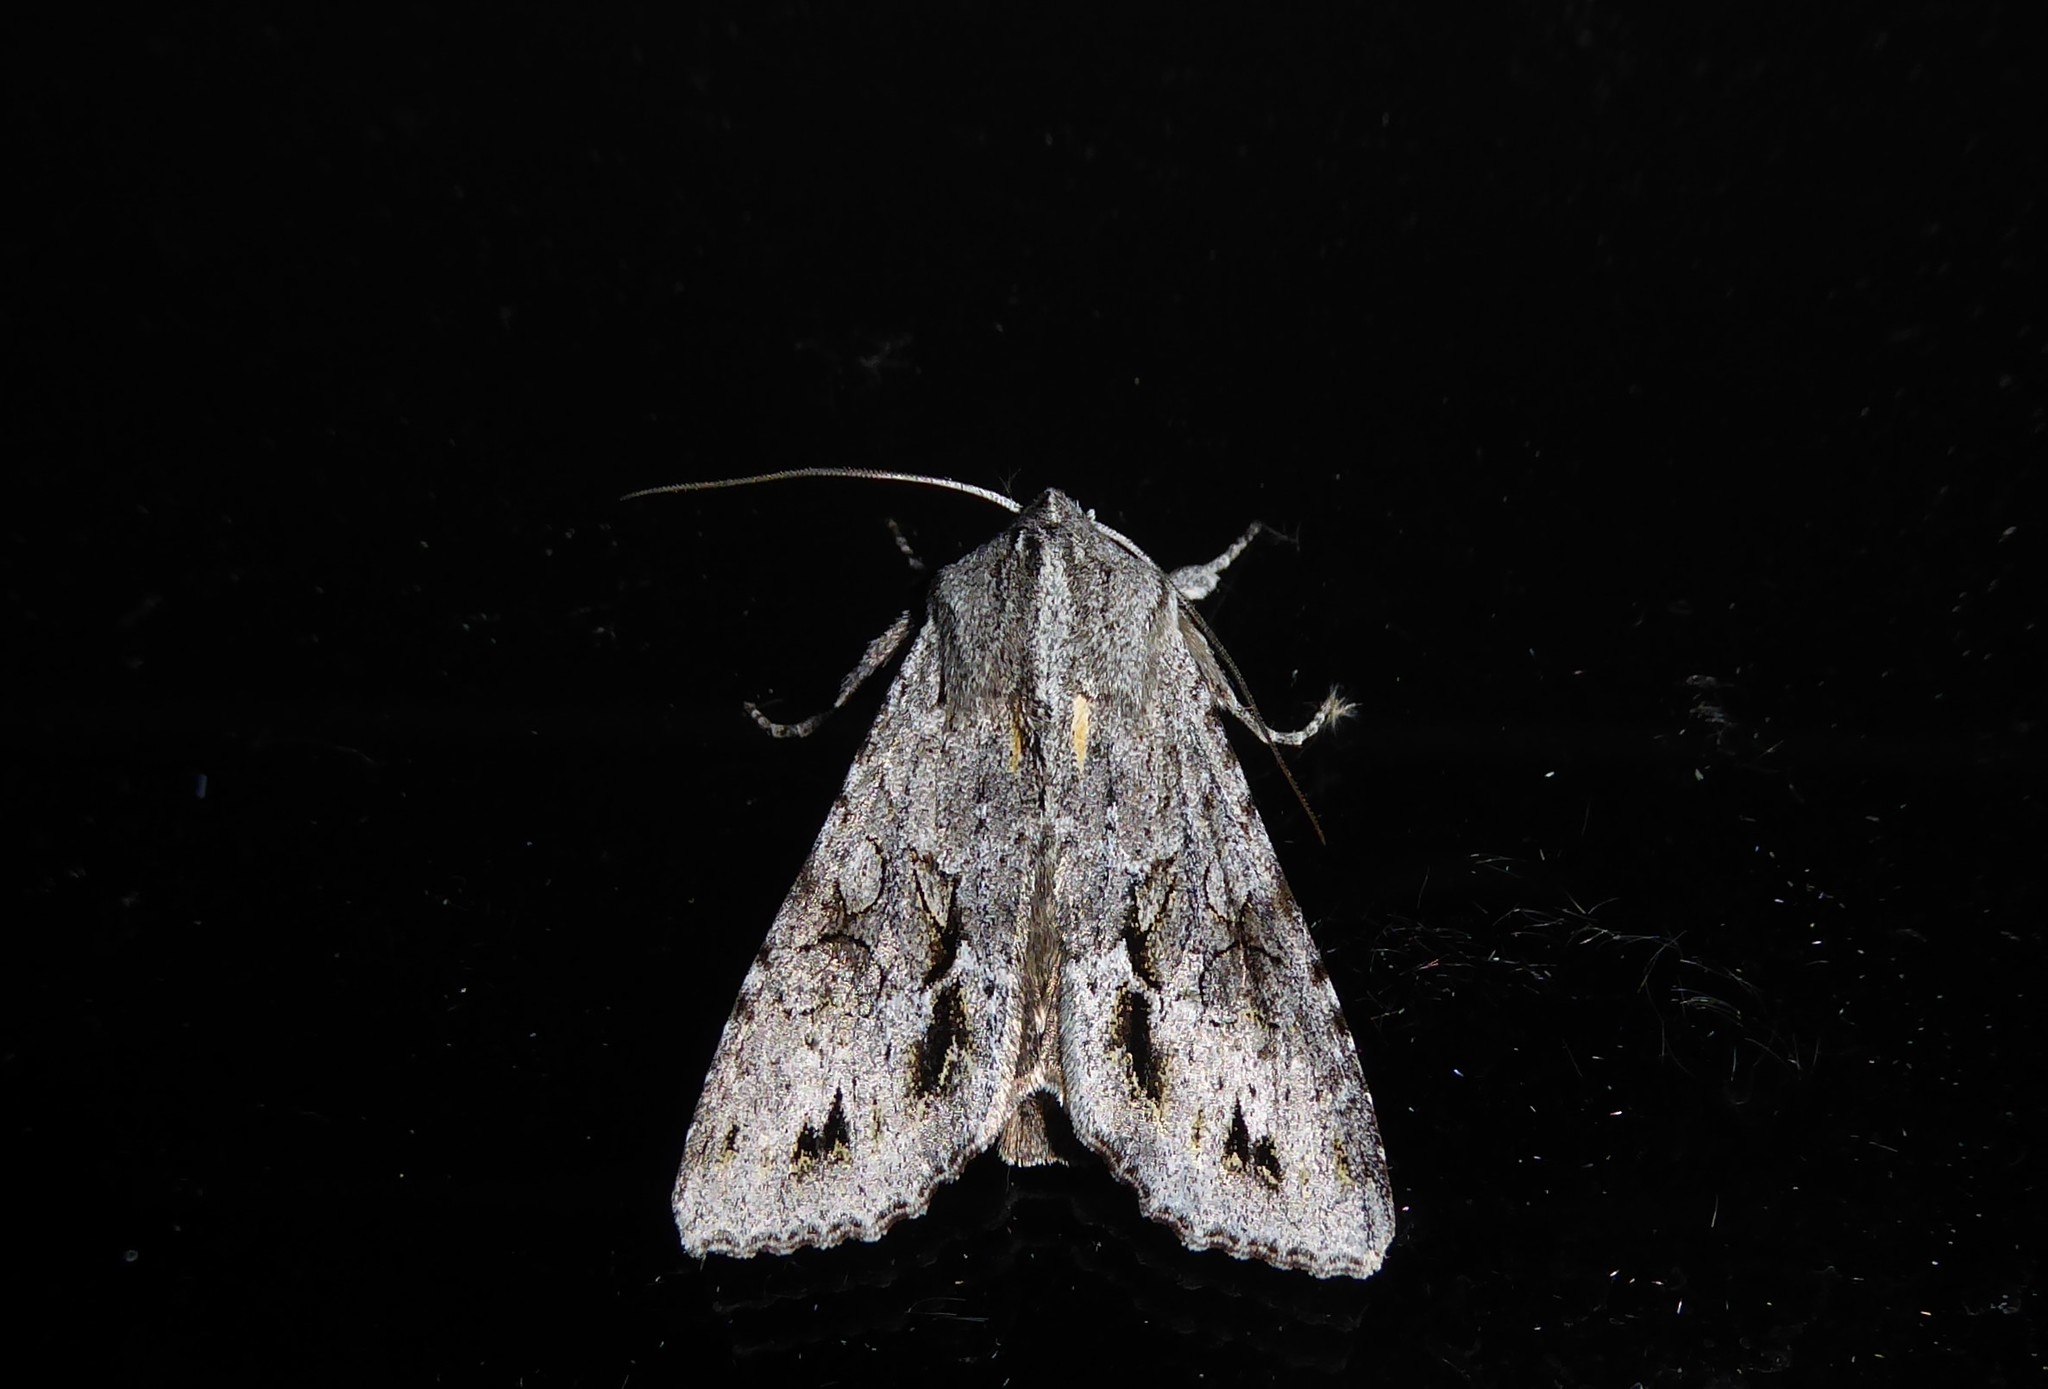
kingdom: Animalia
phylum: Arthropoda
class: Insecta
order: Lepidoptera
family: Noctuidae
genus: Ichneutica
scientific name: Ichneutica
